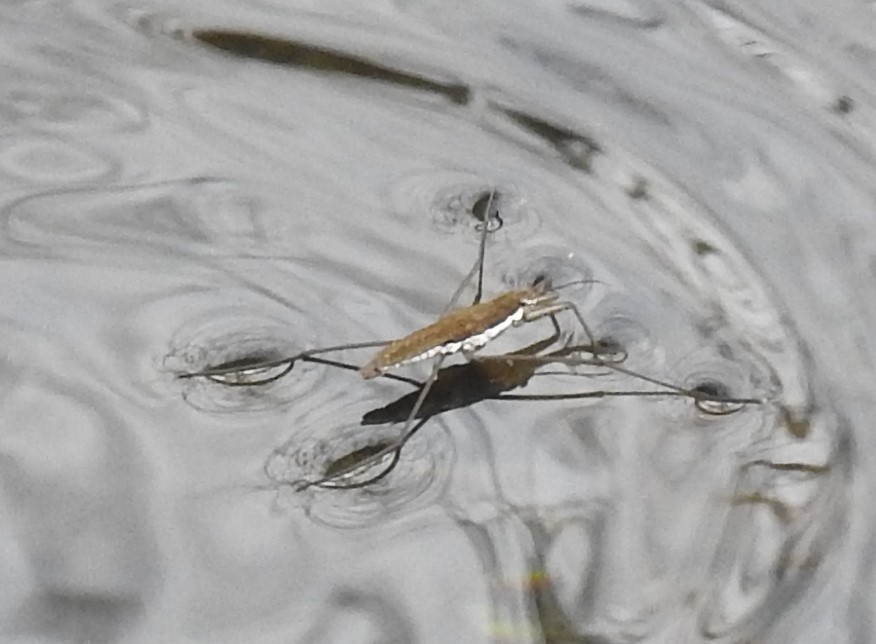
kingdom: Animalia
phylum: Arthropoda
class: Insecta
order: Hemiptera
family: Gerridae
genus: Aquarius
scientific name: Aquarius remigis
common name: Common water strider
